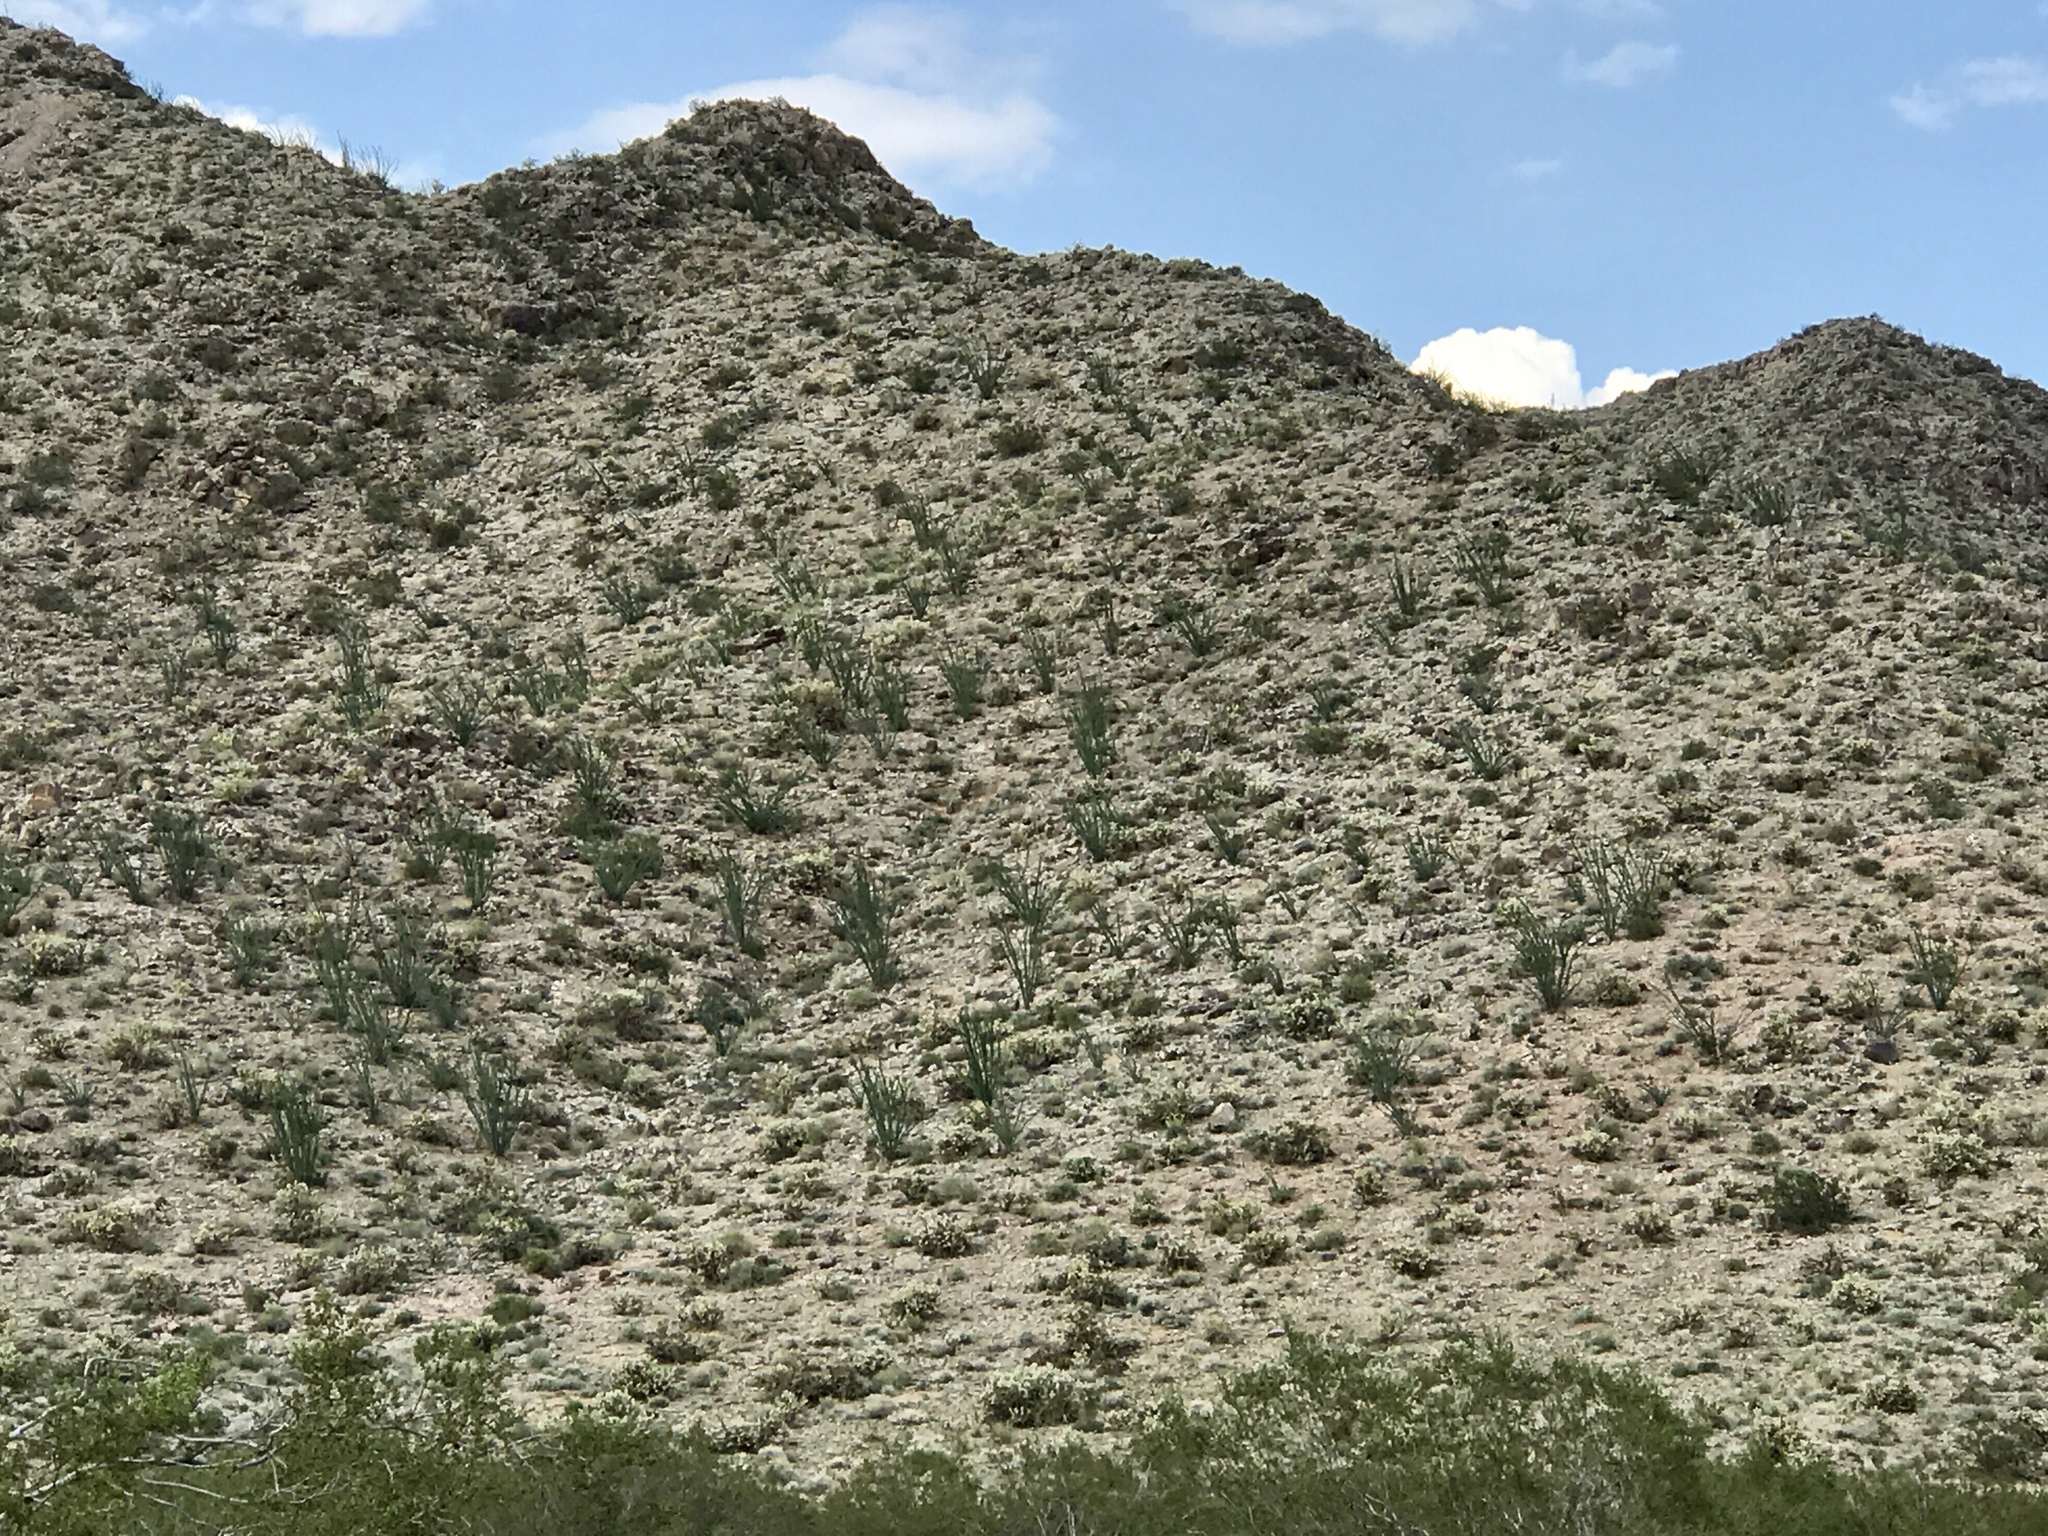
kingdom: Plantae
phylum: Tracheophyta
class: Magnoliopsida
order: Ericales
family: Fouquieriaceae
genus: Fouquieria
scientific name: Fouquieria splendens
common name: Vine-cactus
